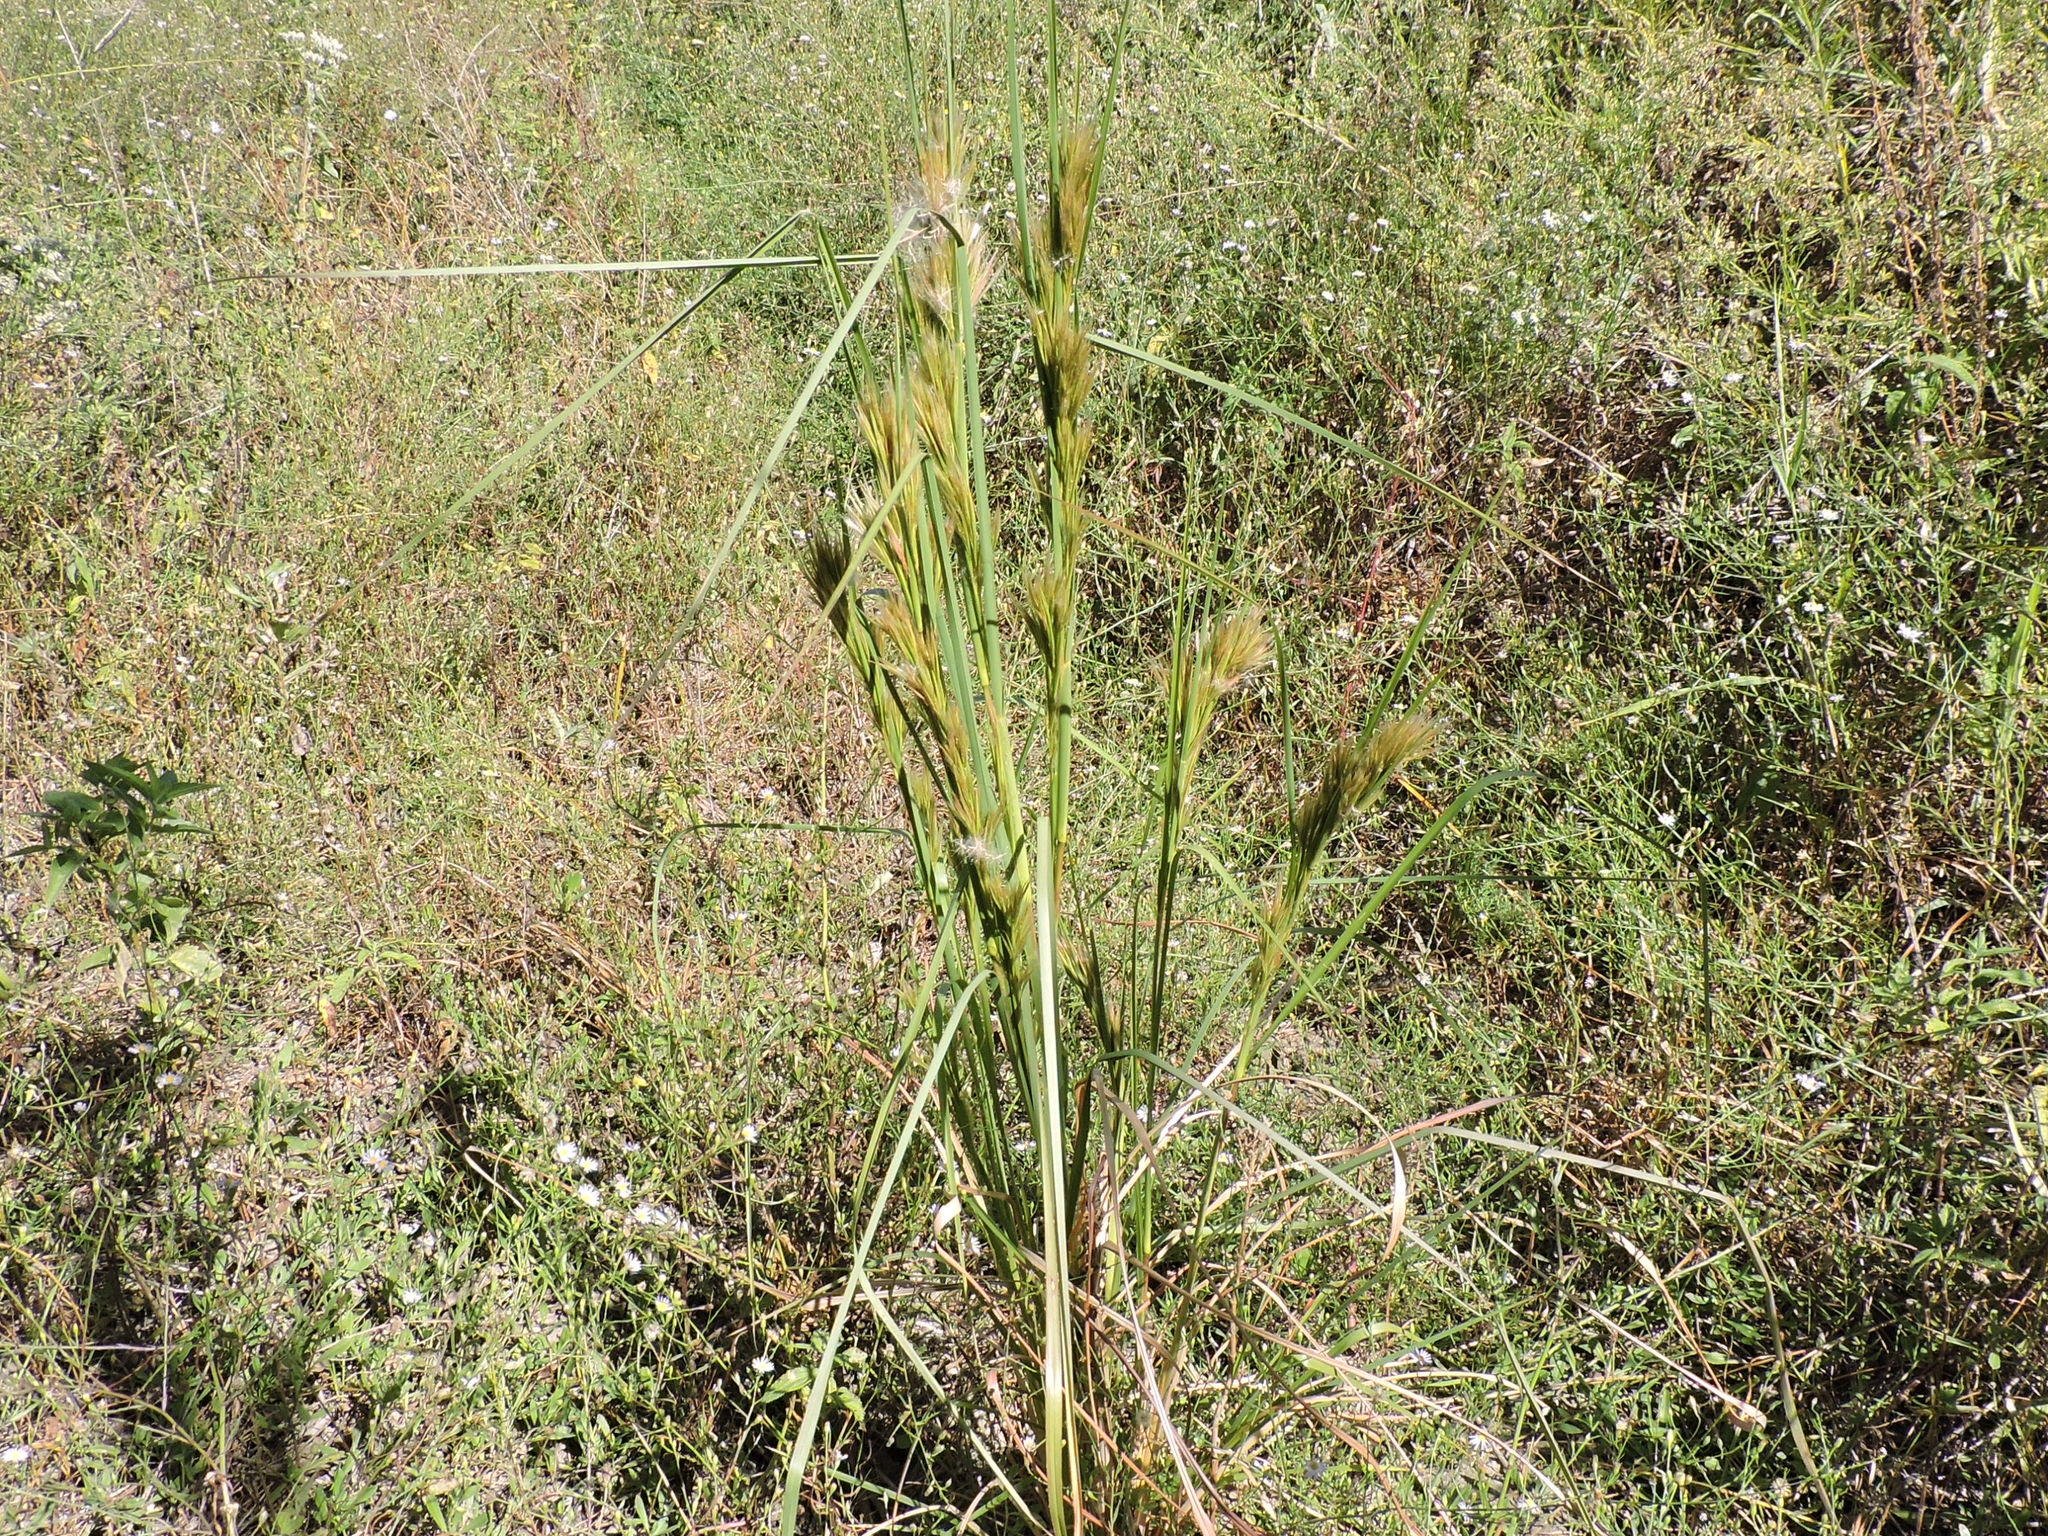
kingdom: Plantae
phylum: Tracheophyta
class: Liliopsida
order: Poales
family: Poaceae
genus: Andropogon
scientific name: Andropogon tenuispatheus
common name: Bushy bluestem
